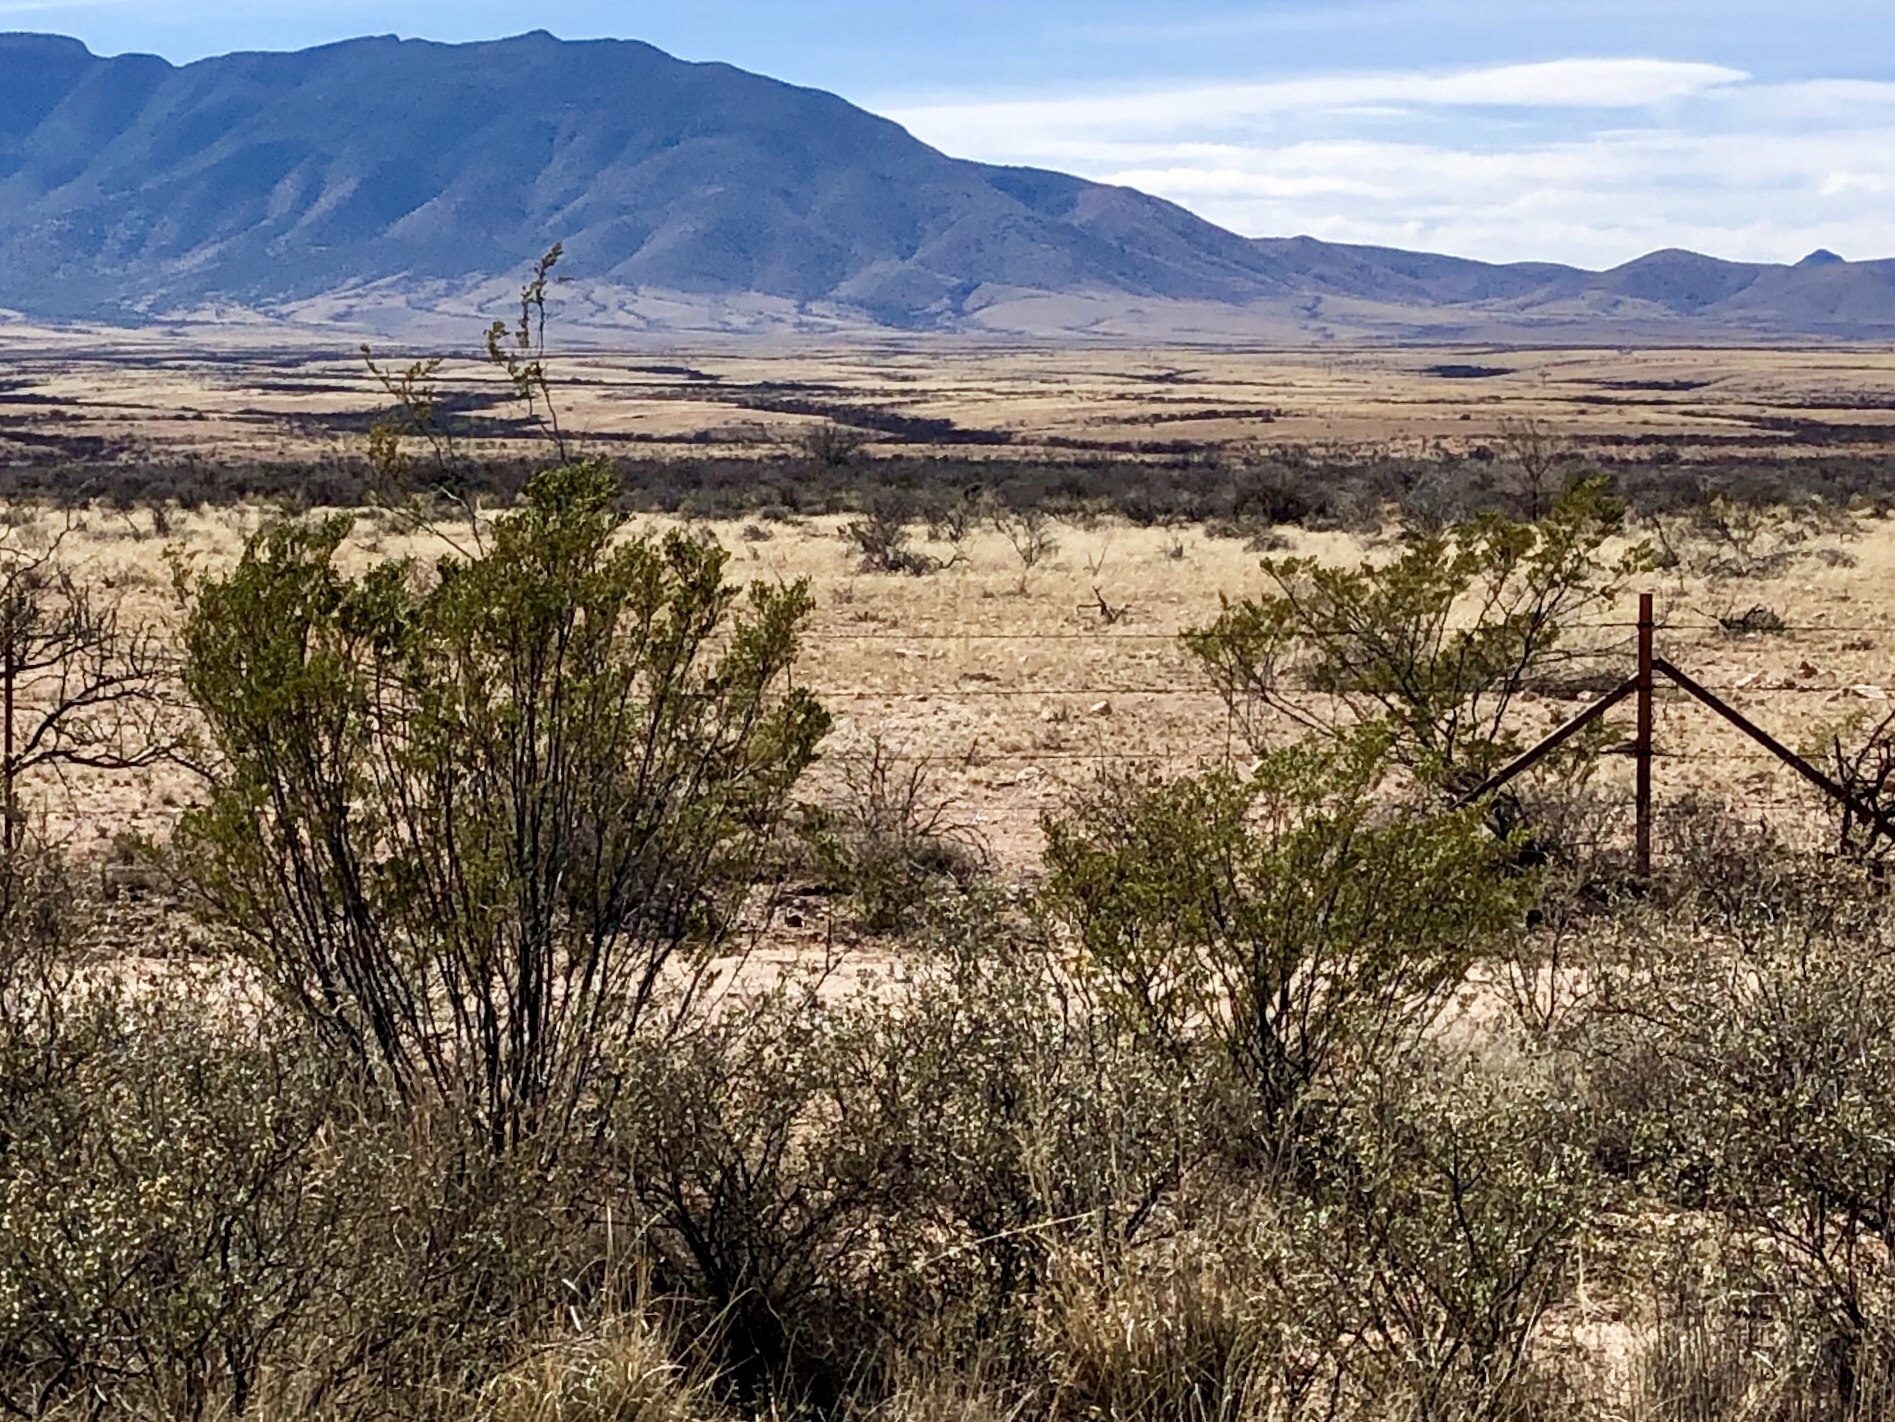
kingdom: Plantae
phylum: Tracheophyta
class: Magnoliopsida
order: Zygophyllales
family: Zygophyllaceae
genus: Larrea
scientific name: Larrea tridentata
